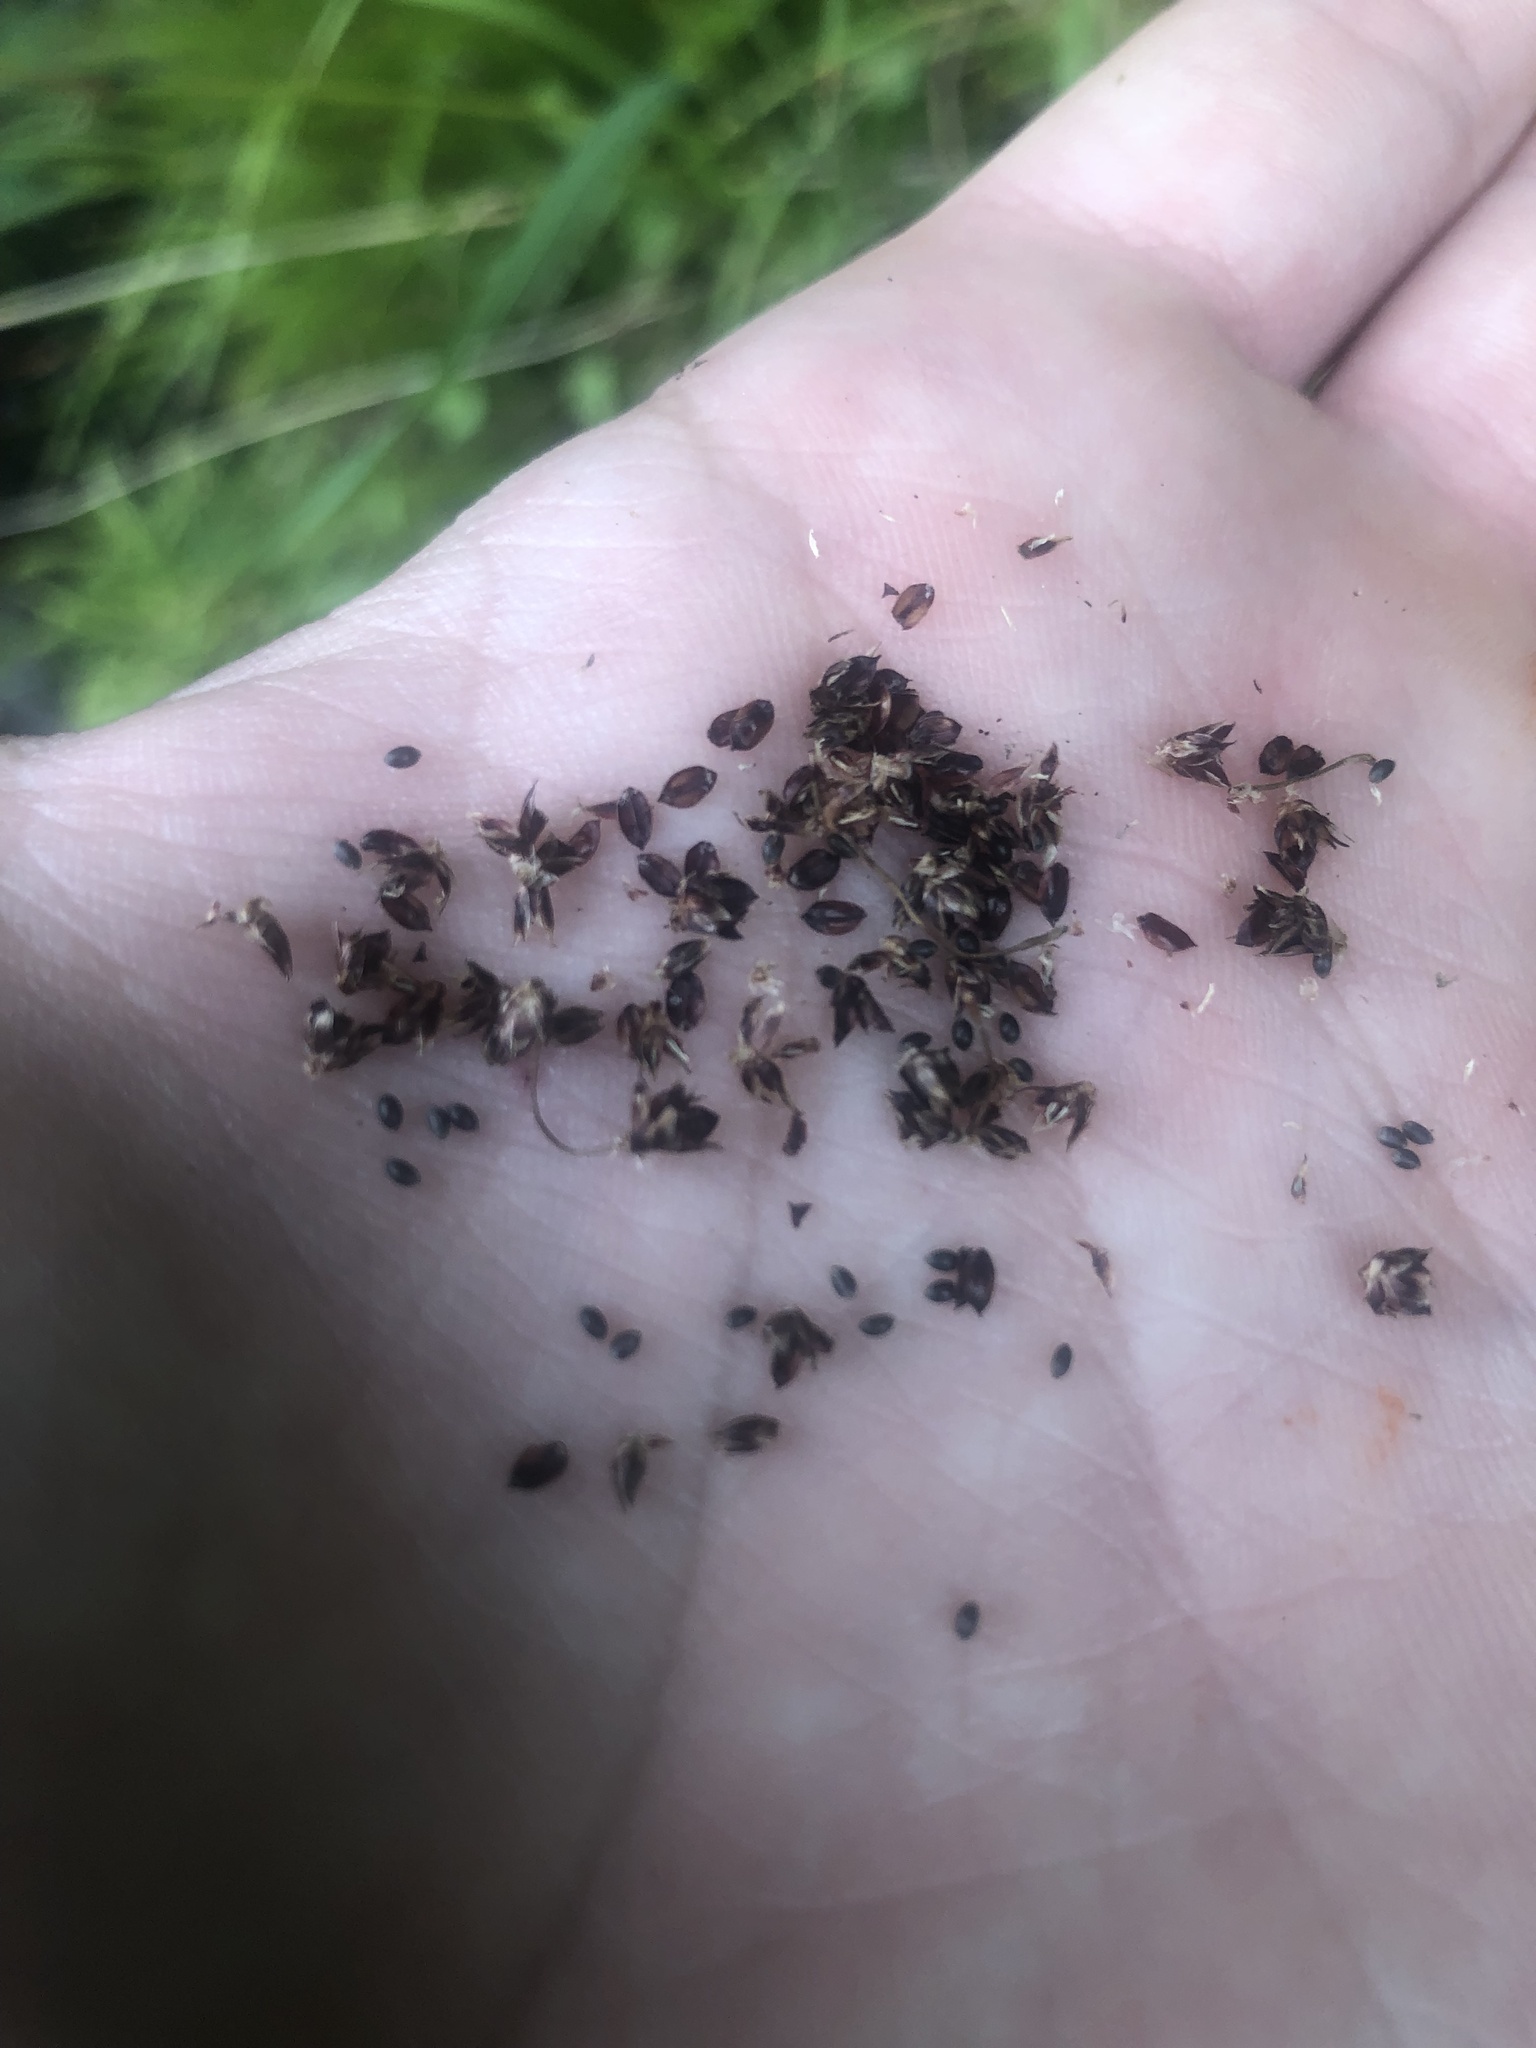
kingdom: Plantae
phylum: Tracheophyta
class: Liliopsida
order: Poales
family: Juncaceae
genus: Luzula
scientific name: Luzula multiflora
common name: Heath wood-rush
